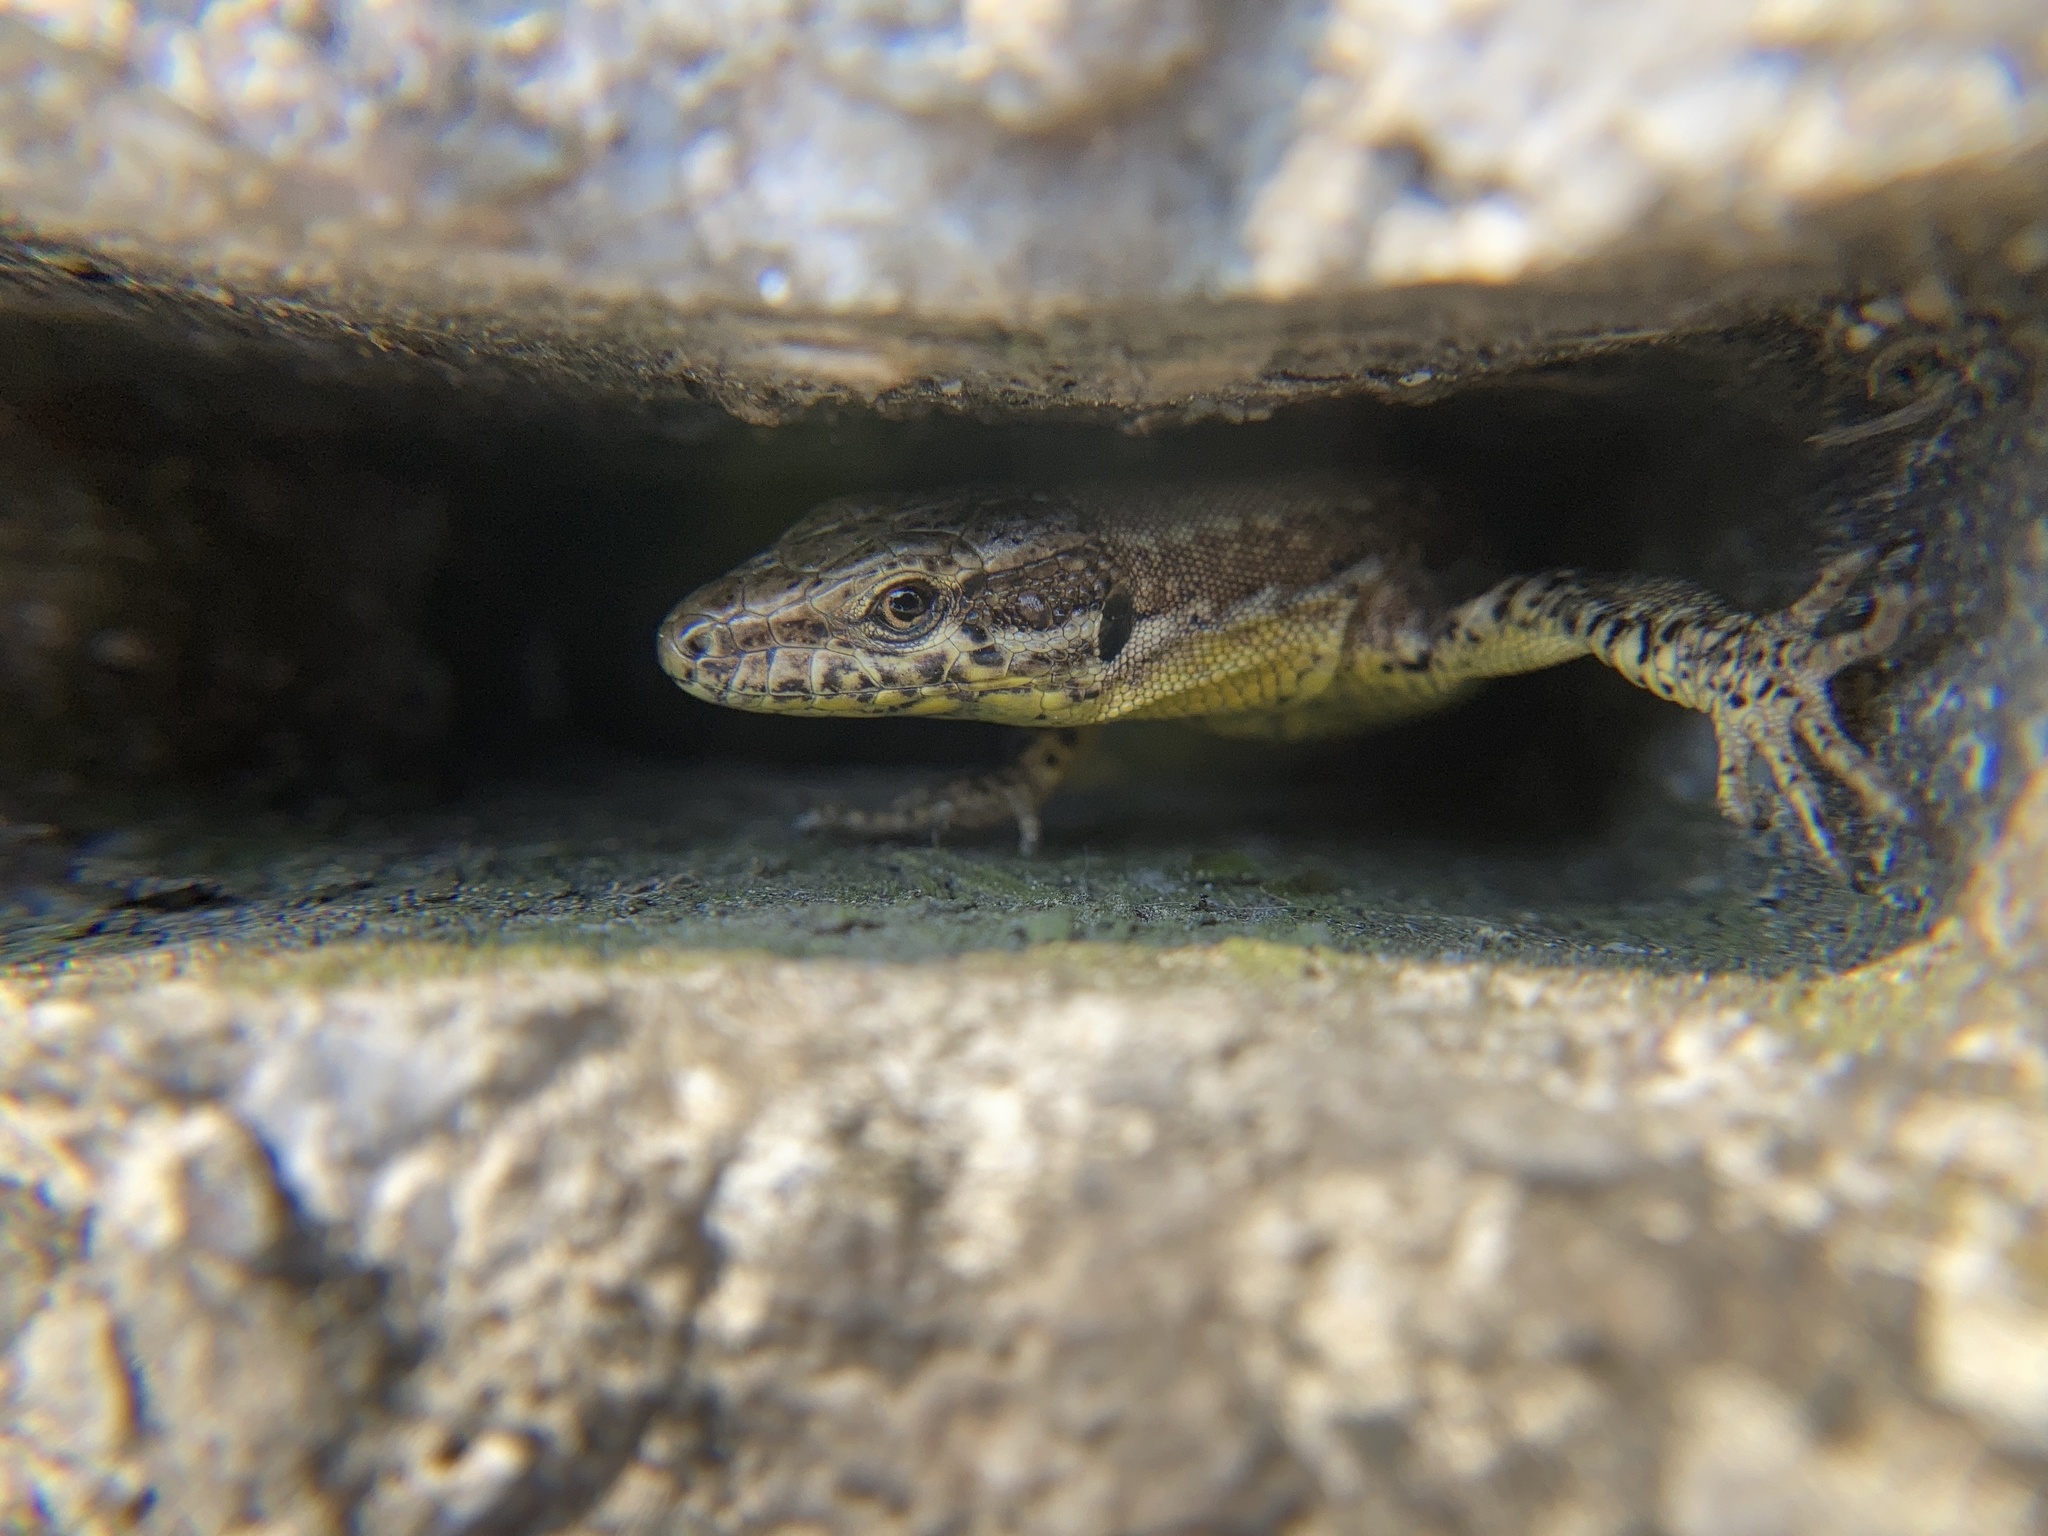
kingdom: Animalia
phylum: Chordata
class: Squamata
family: Lacertidae
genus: Podarcis
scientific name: Podarcis muralis
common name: Common wall lizard
